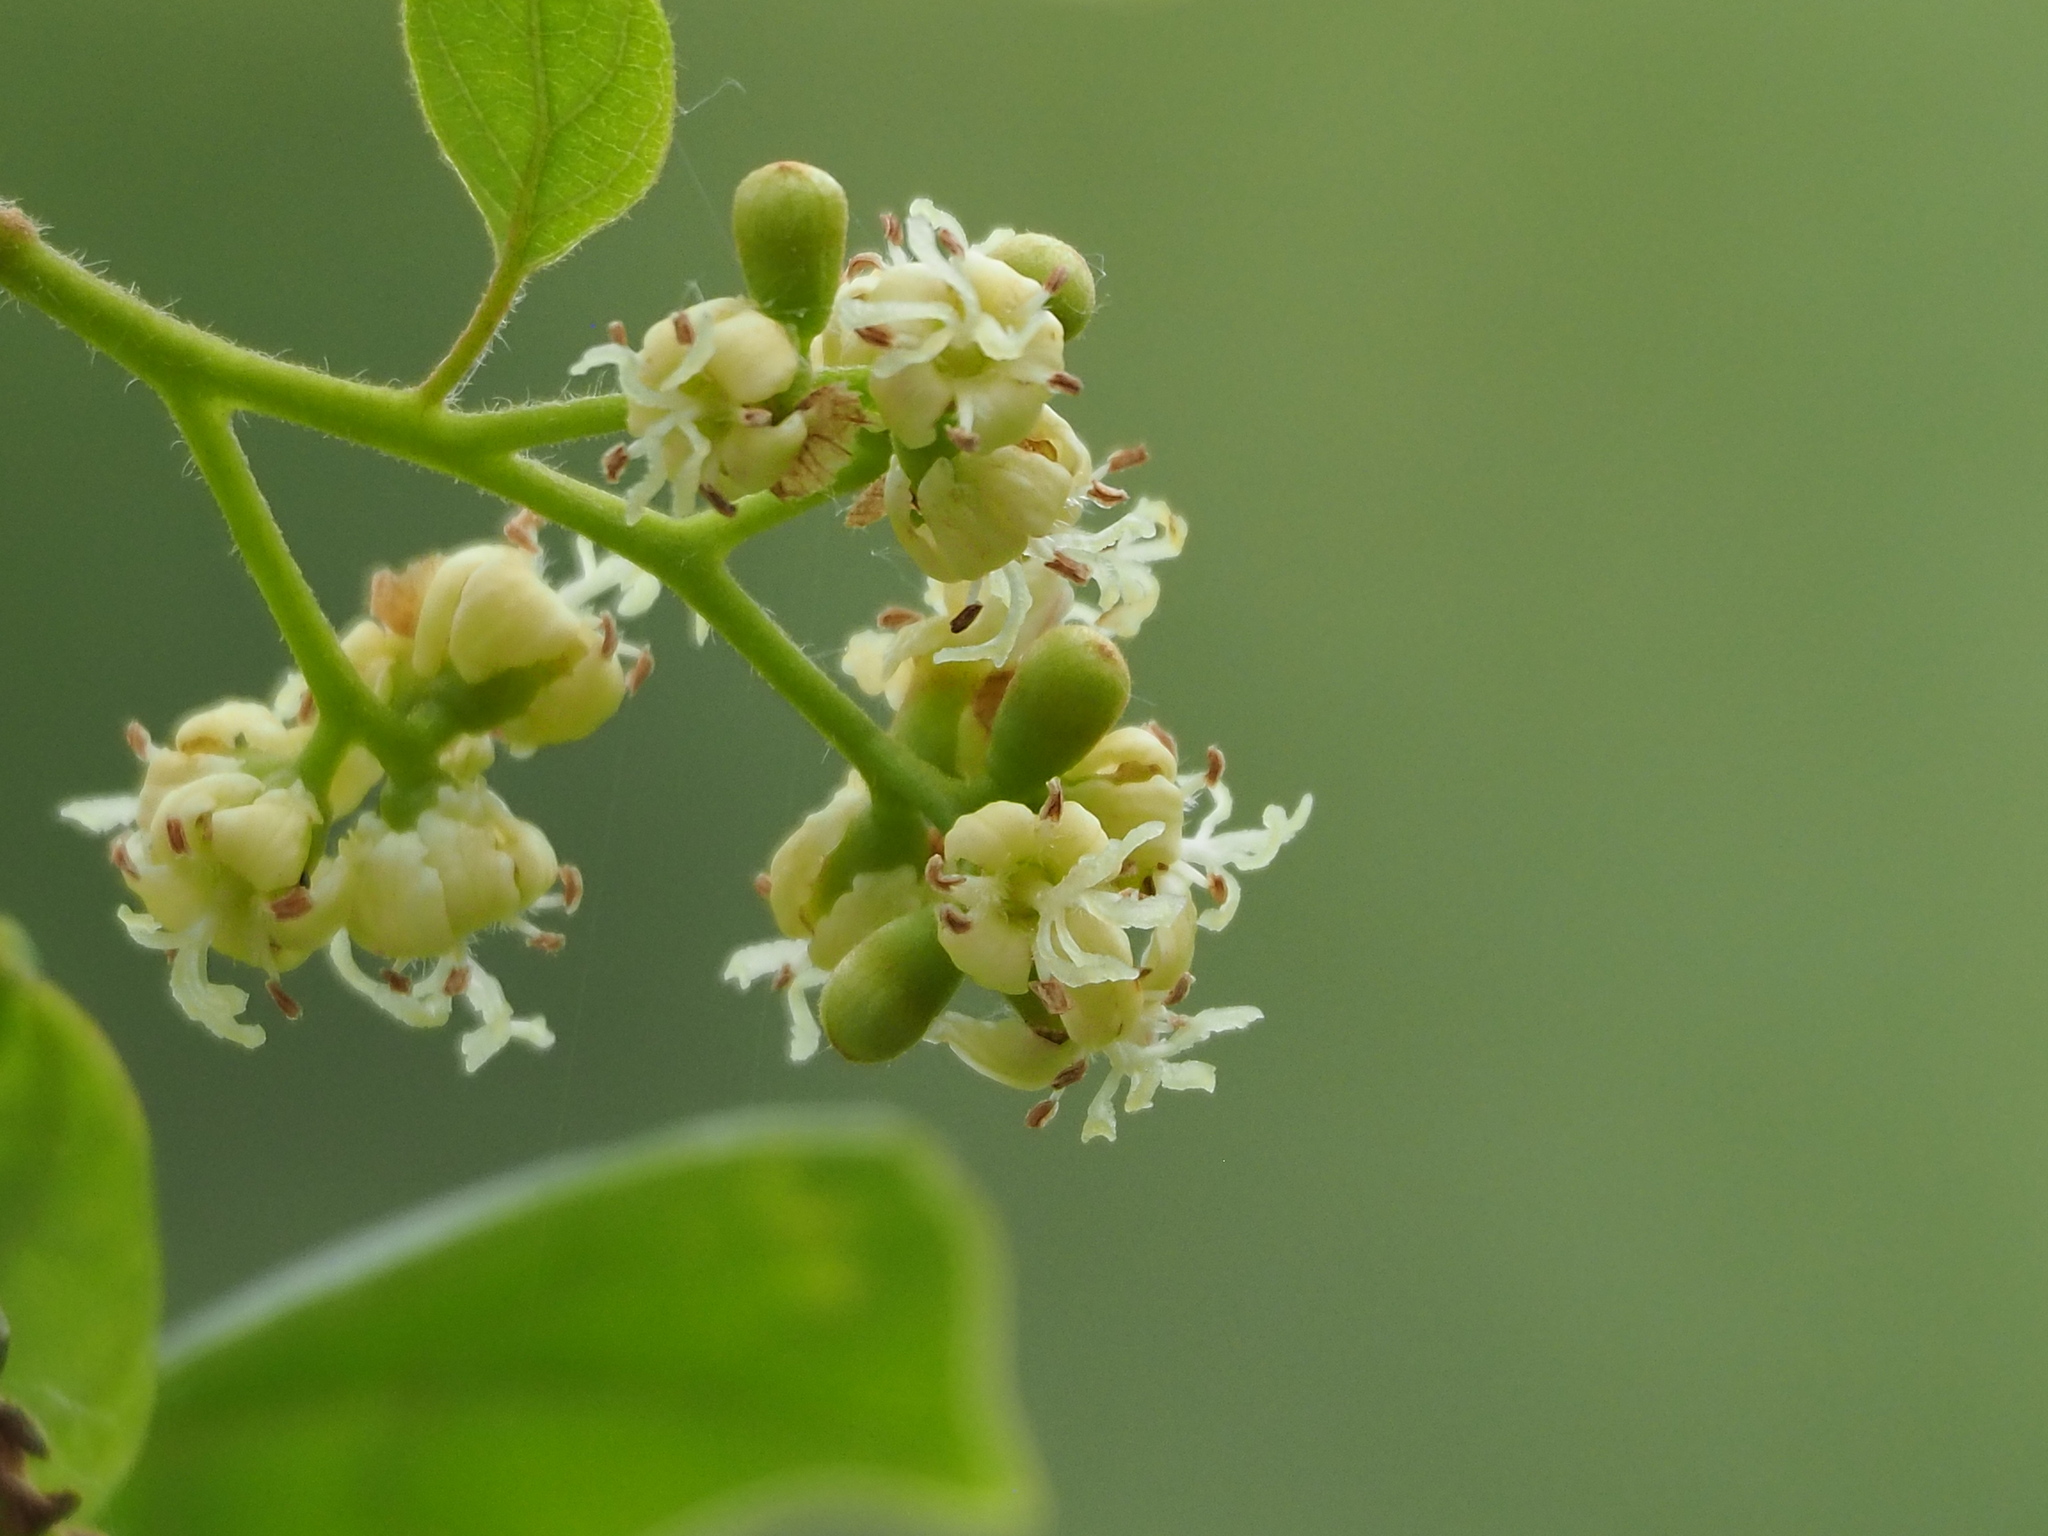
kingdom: Plantae
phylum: Tracheophyta
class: Magnoliopsida
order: Boraginales
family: Cordiaceae
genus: Cordia
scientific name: Cordia dichotoma
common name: Fragrant manjack
